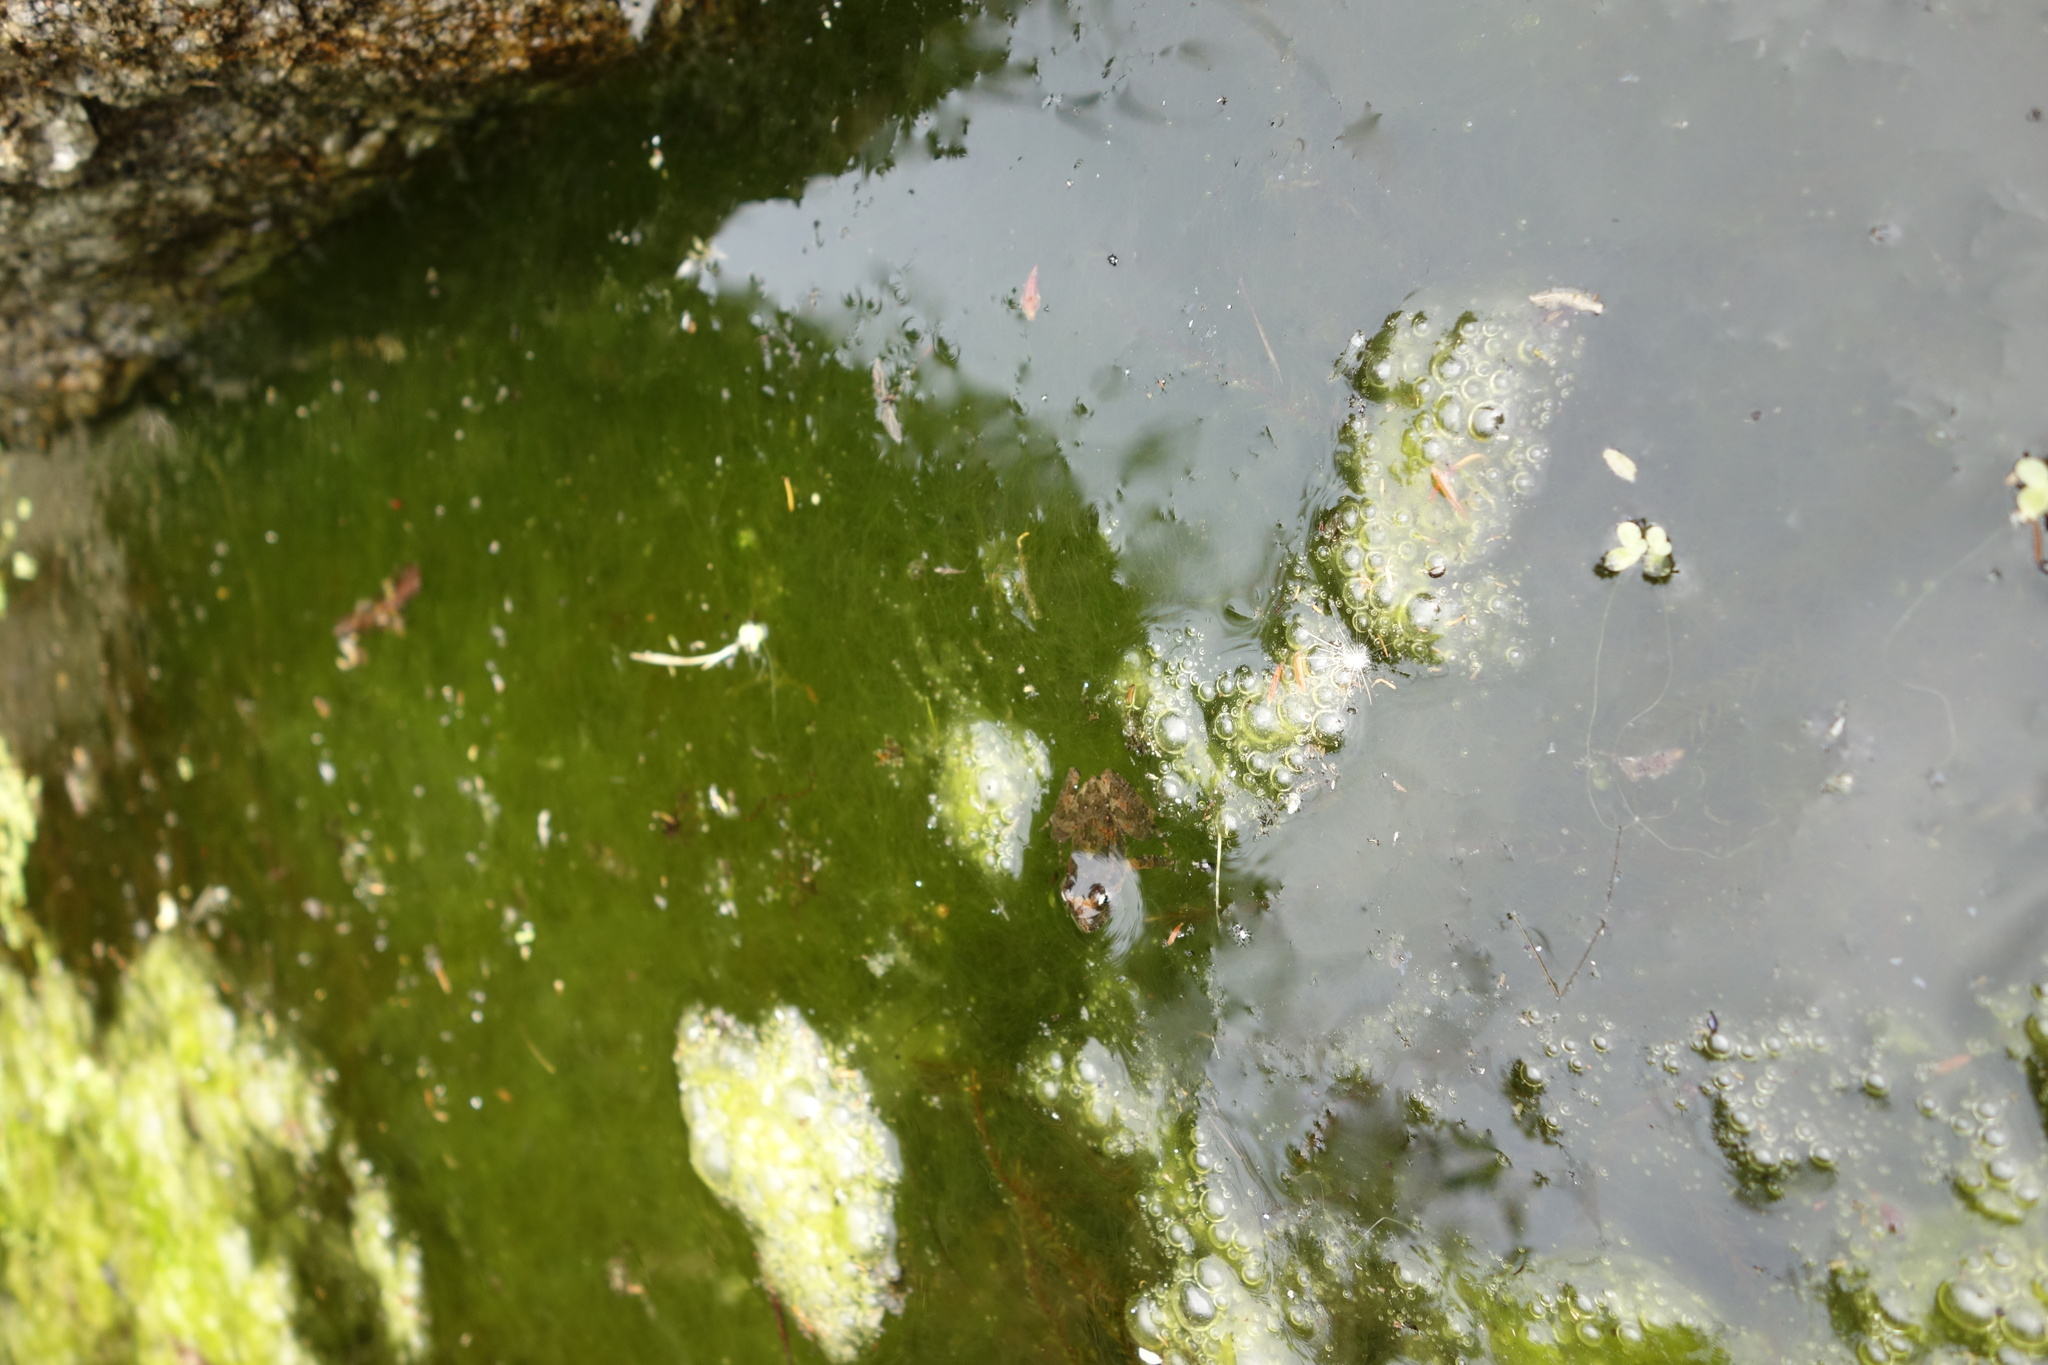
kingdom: Animalia
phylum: Chordata
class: Amphibia
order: Anura
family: Alytidae
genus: Discoglossus
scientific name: Discoglossus sardus
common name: Sardinia painted frog
